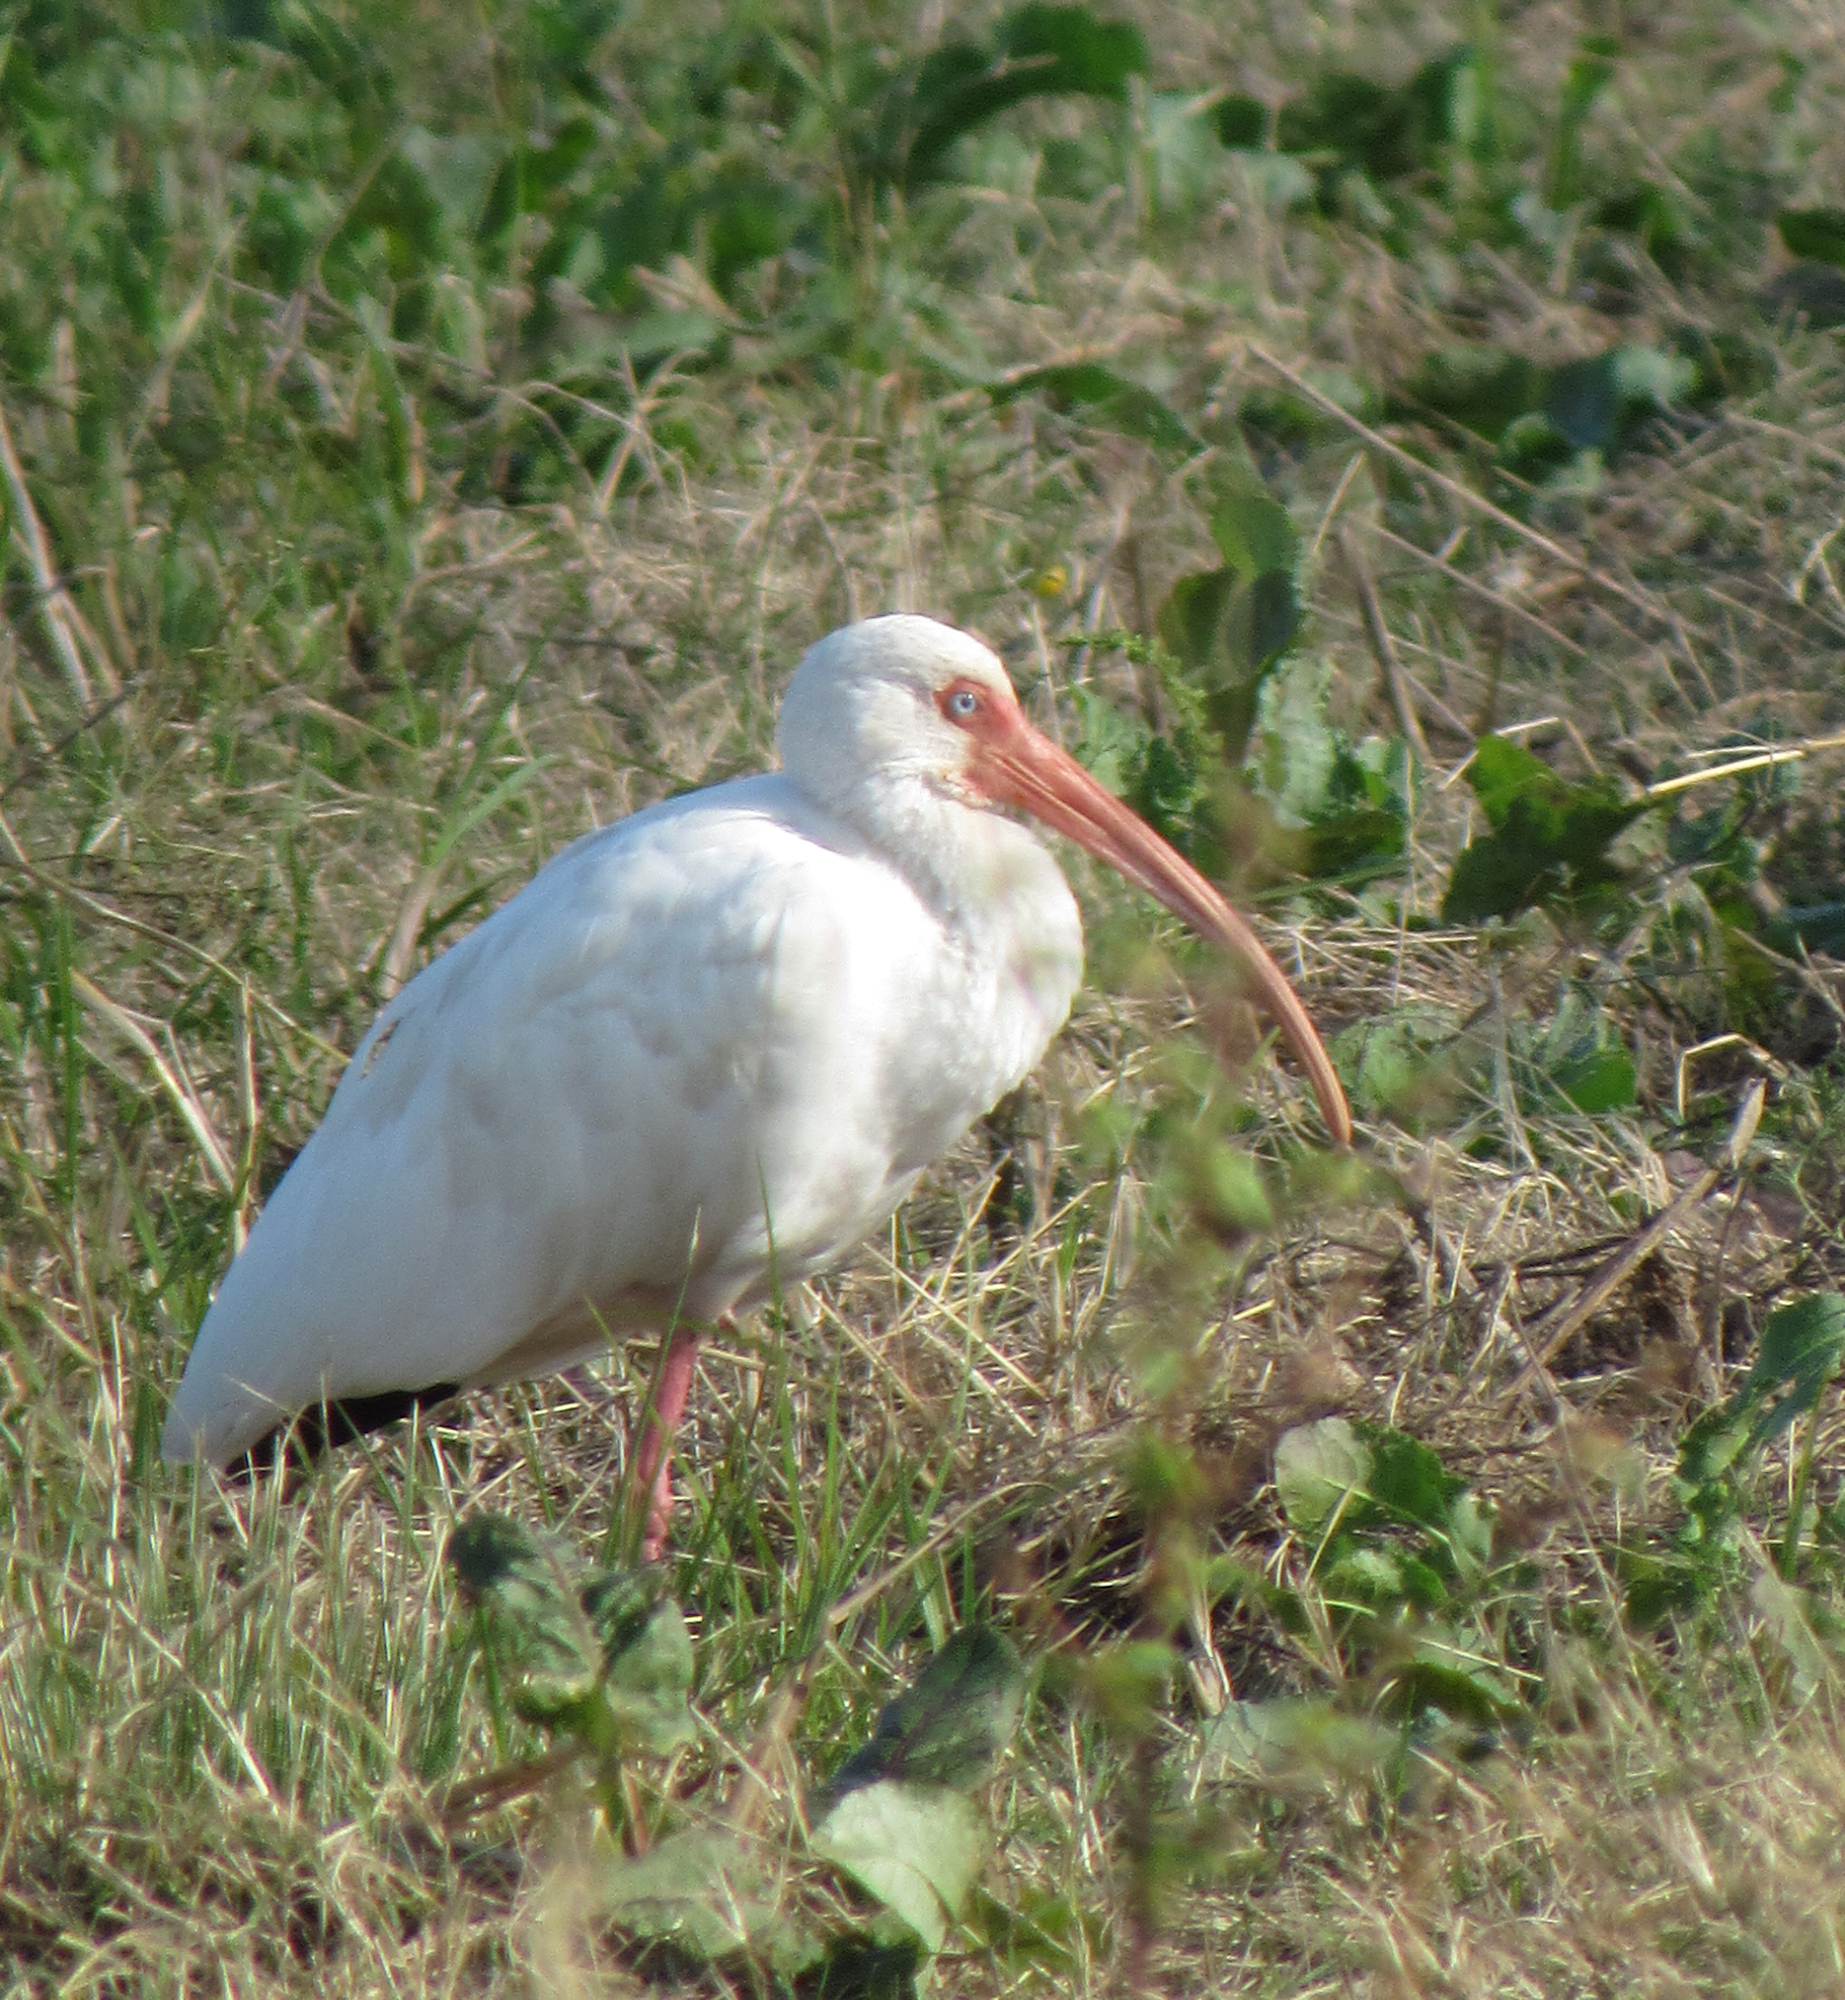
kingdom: Animalia
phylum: Chordata
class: Aves
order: Pelecaniformes
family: Threskiornithidae
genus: Eudocimus
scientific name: Eudocimus albus
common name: White ibis
